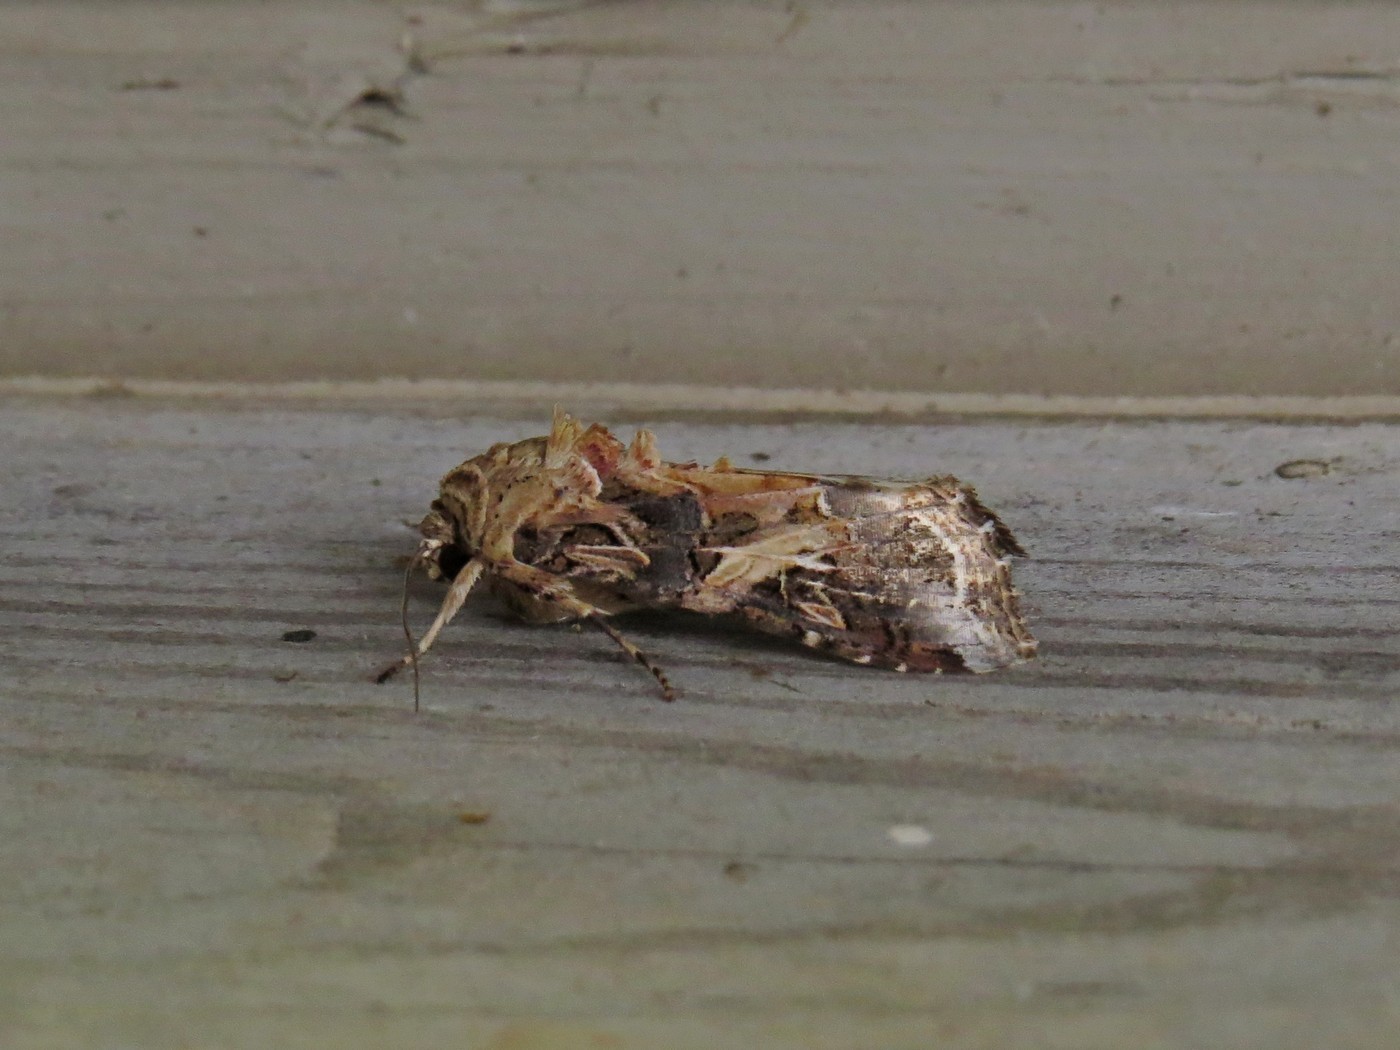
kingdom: Animalia
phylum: Arthropoda
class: Insecta
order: Lepidoptera
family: Noctuidae
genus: Spodoptera
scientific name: Spodoptera ornithogalli
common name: Yellow-striped armyworm
